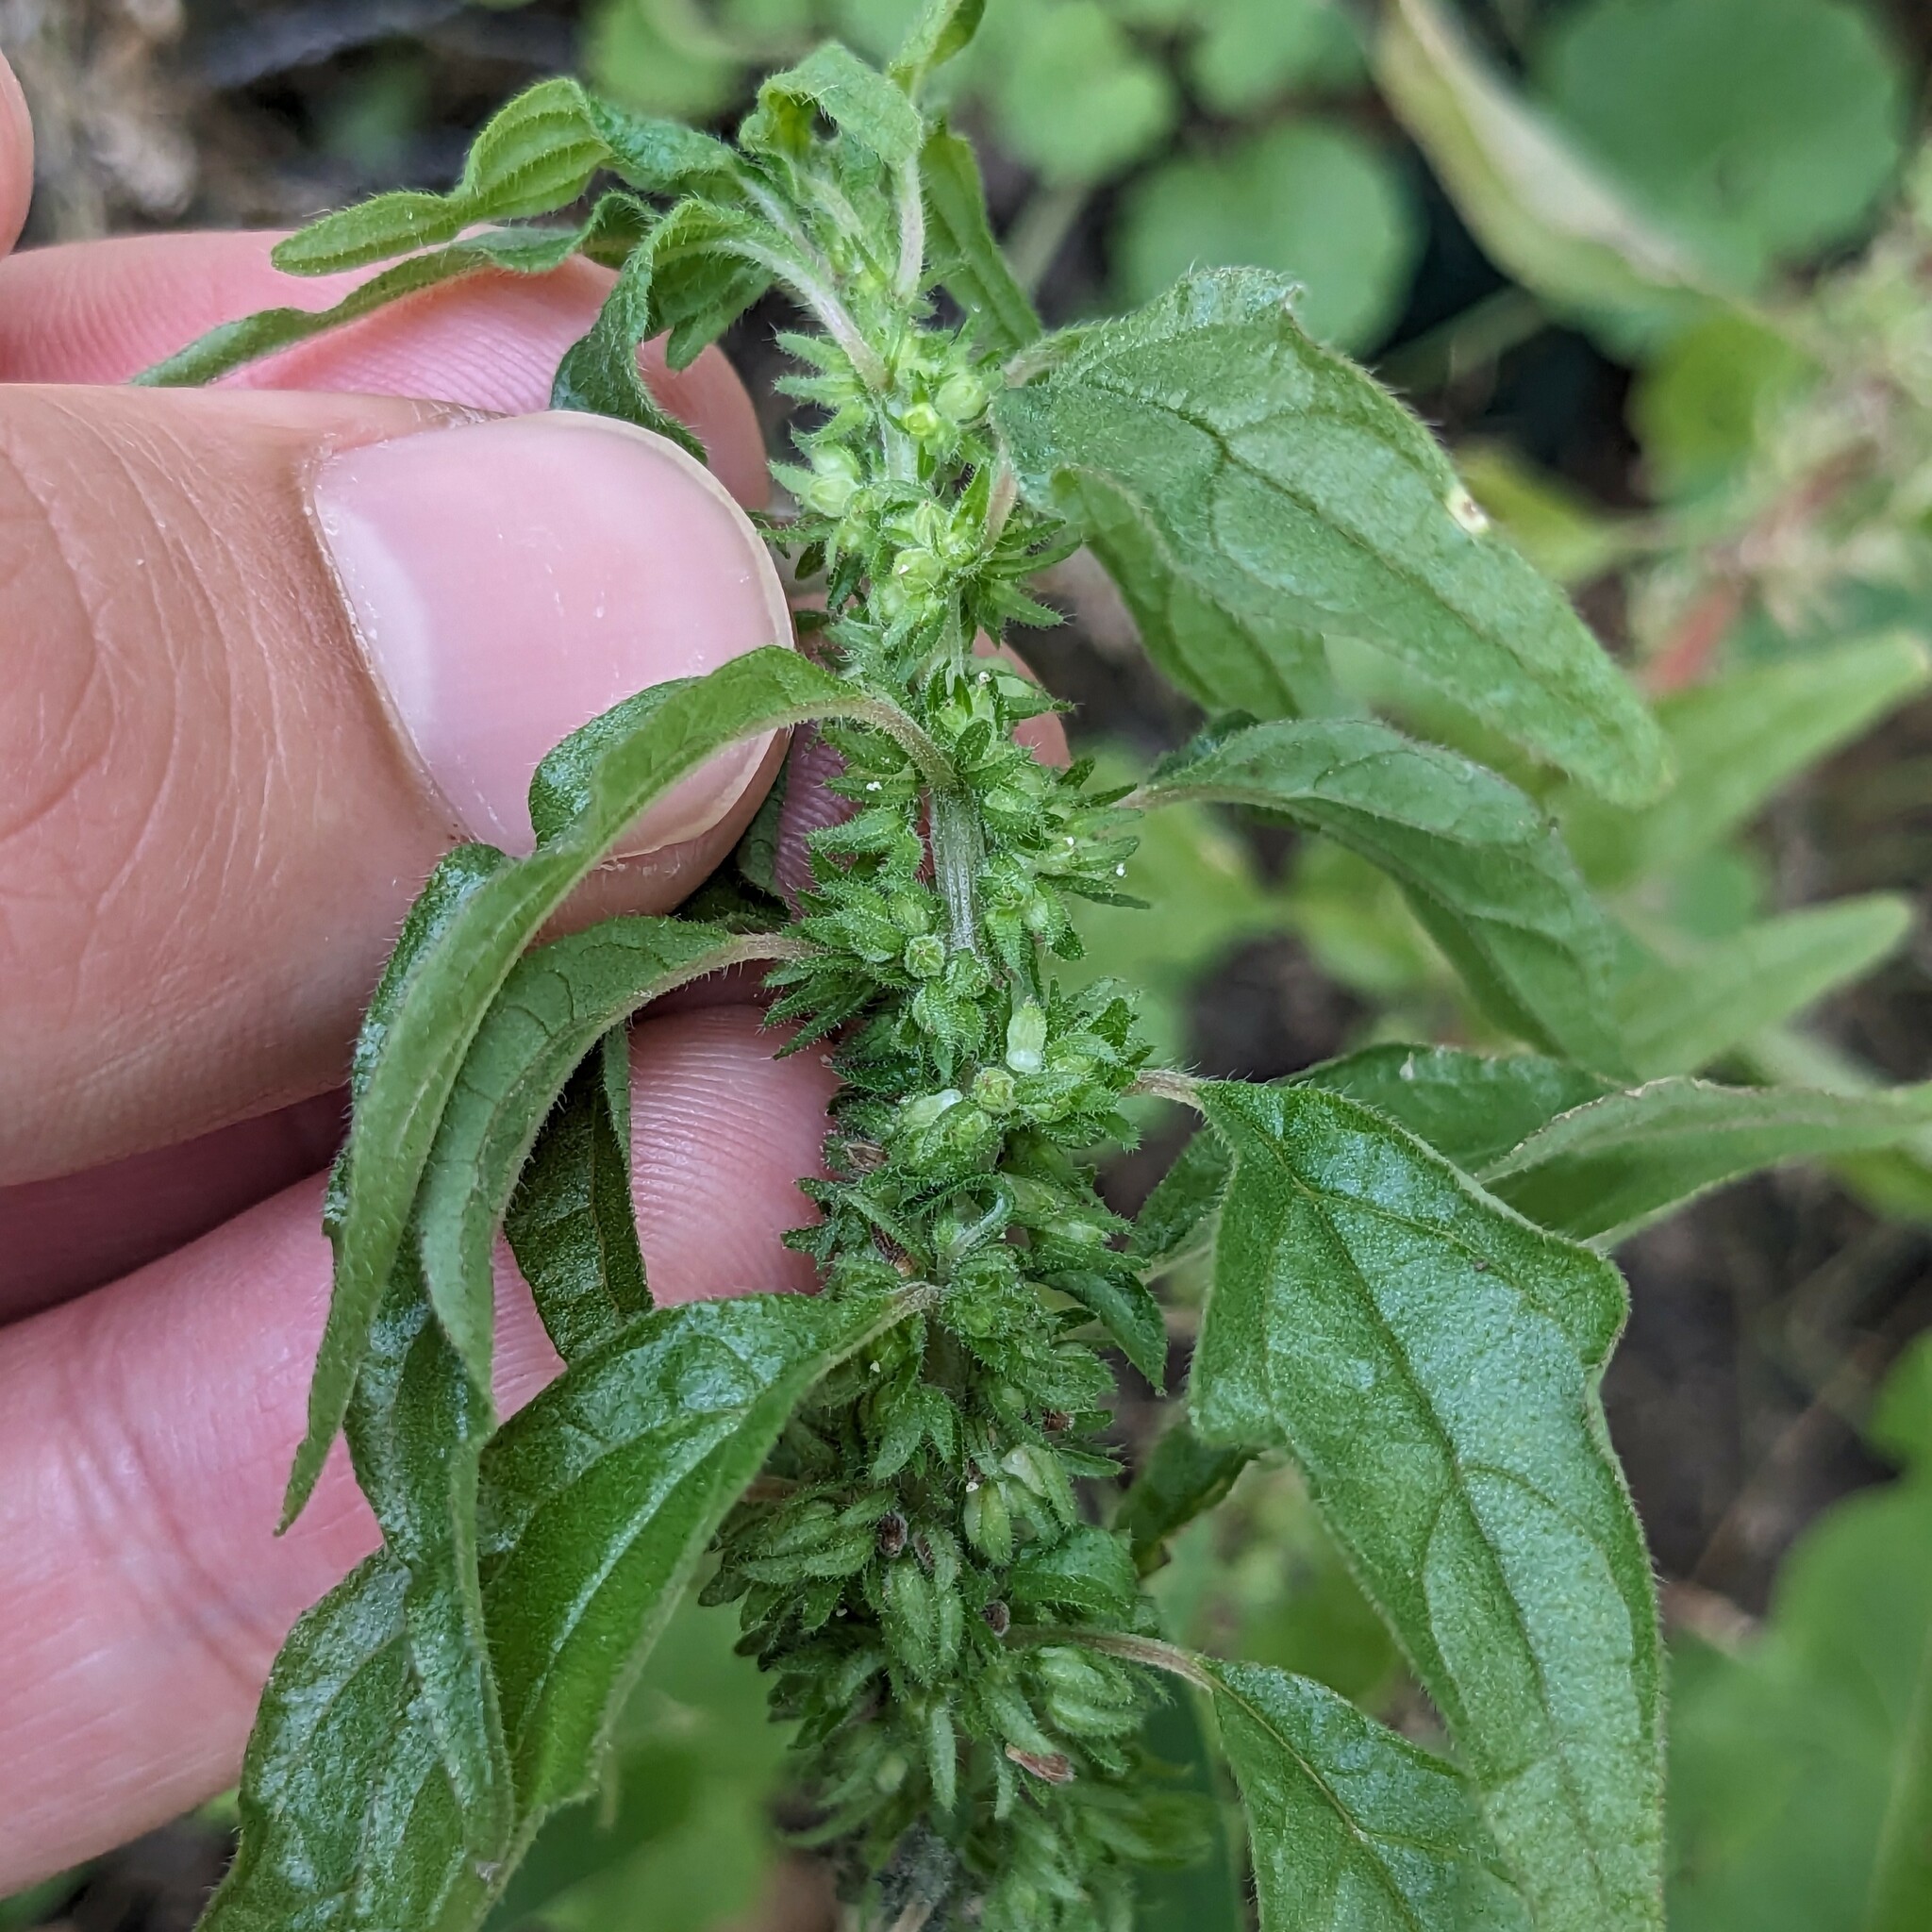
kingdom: Plantae
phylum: Tracheophyta
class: Magnoliopsida
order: Rosales
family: Urticaceae
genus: Parietaria
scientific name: Parietaria pensylvanica
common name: Pennsylvania pellitory
